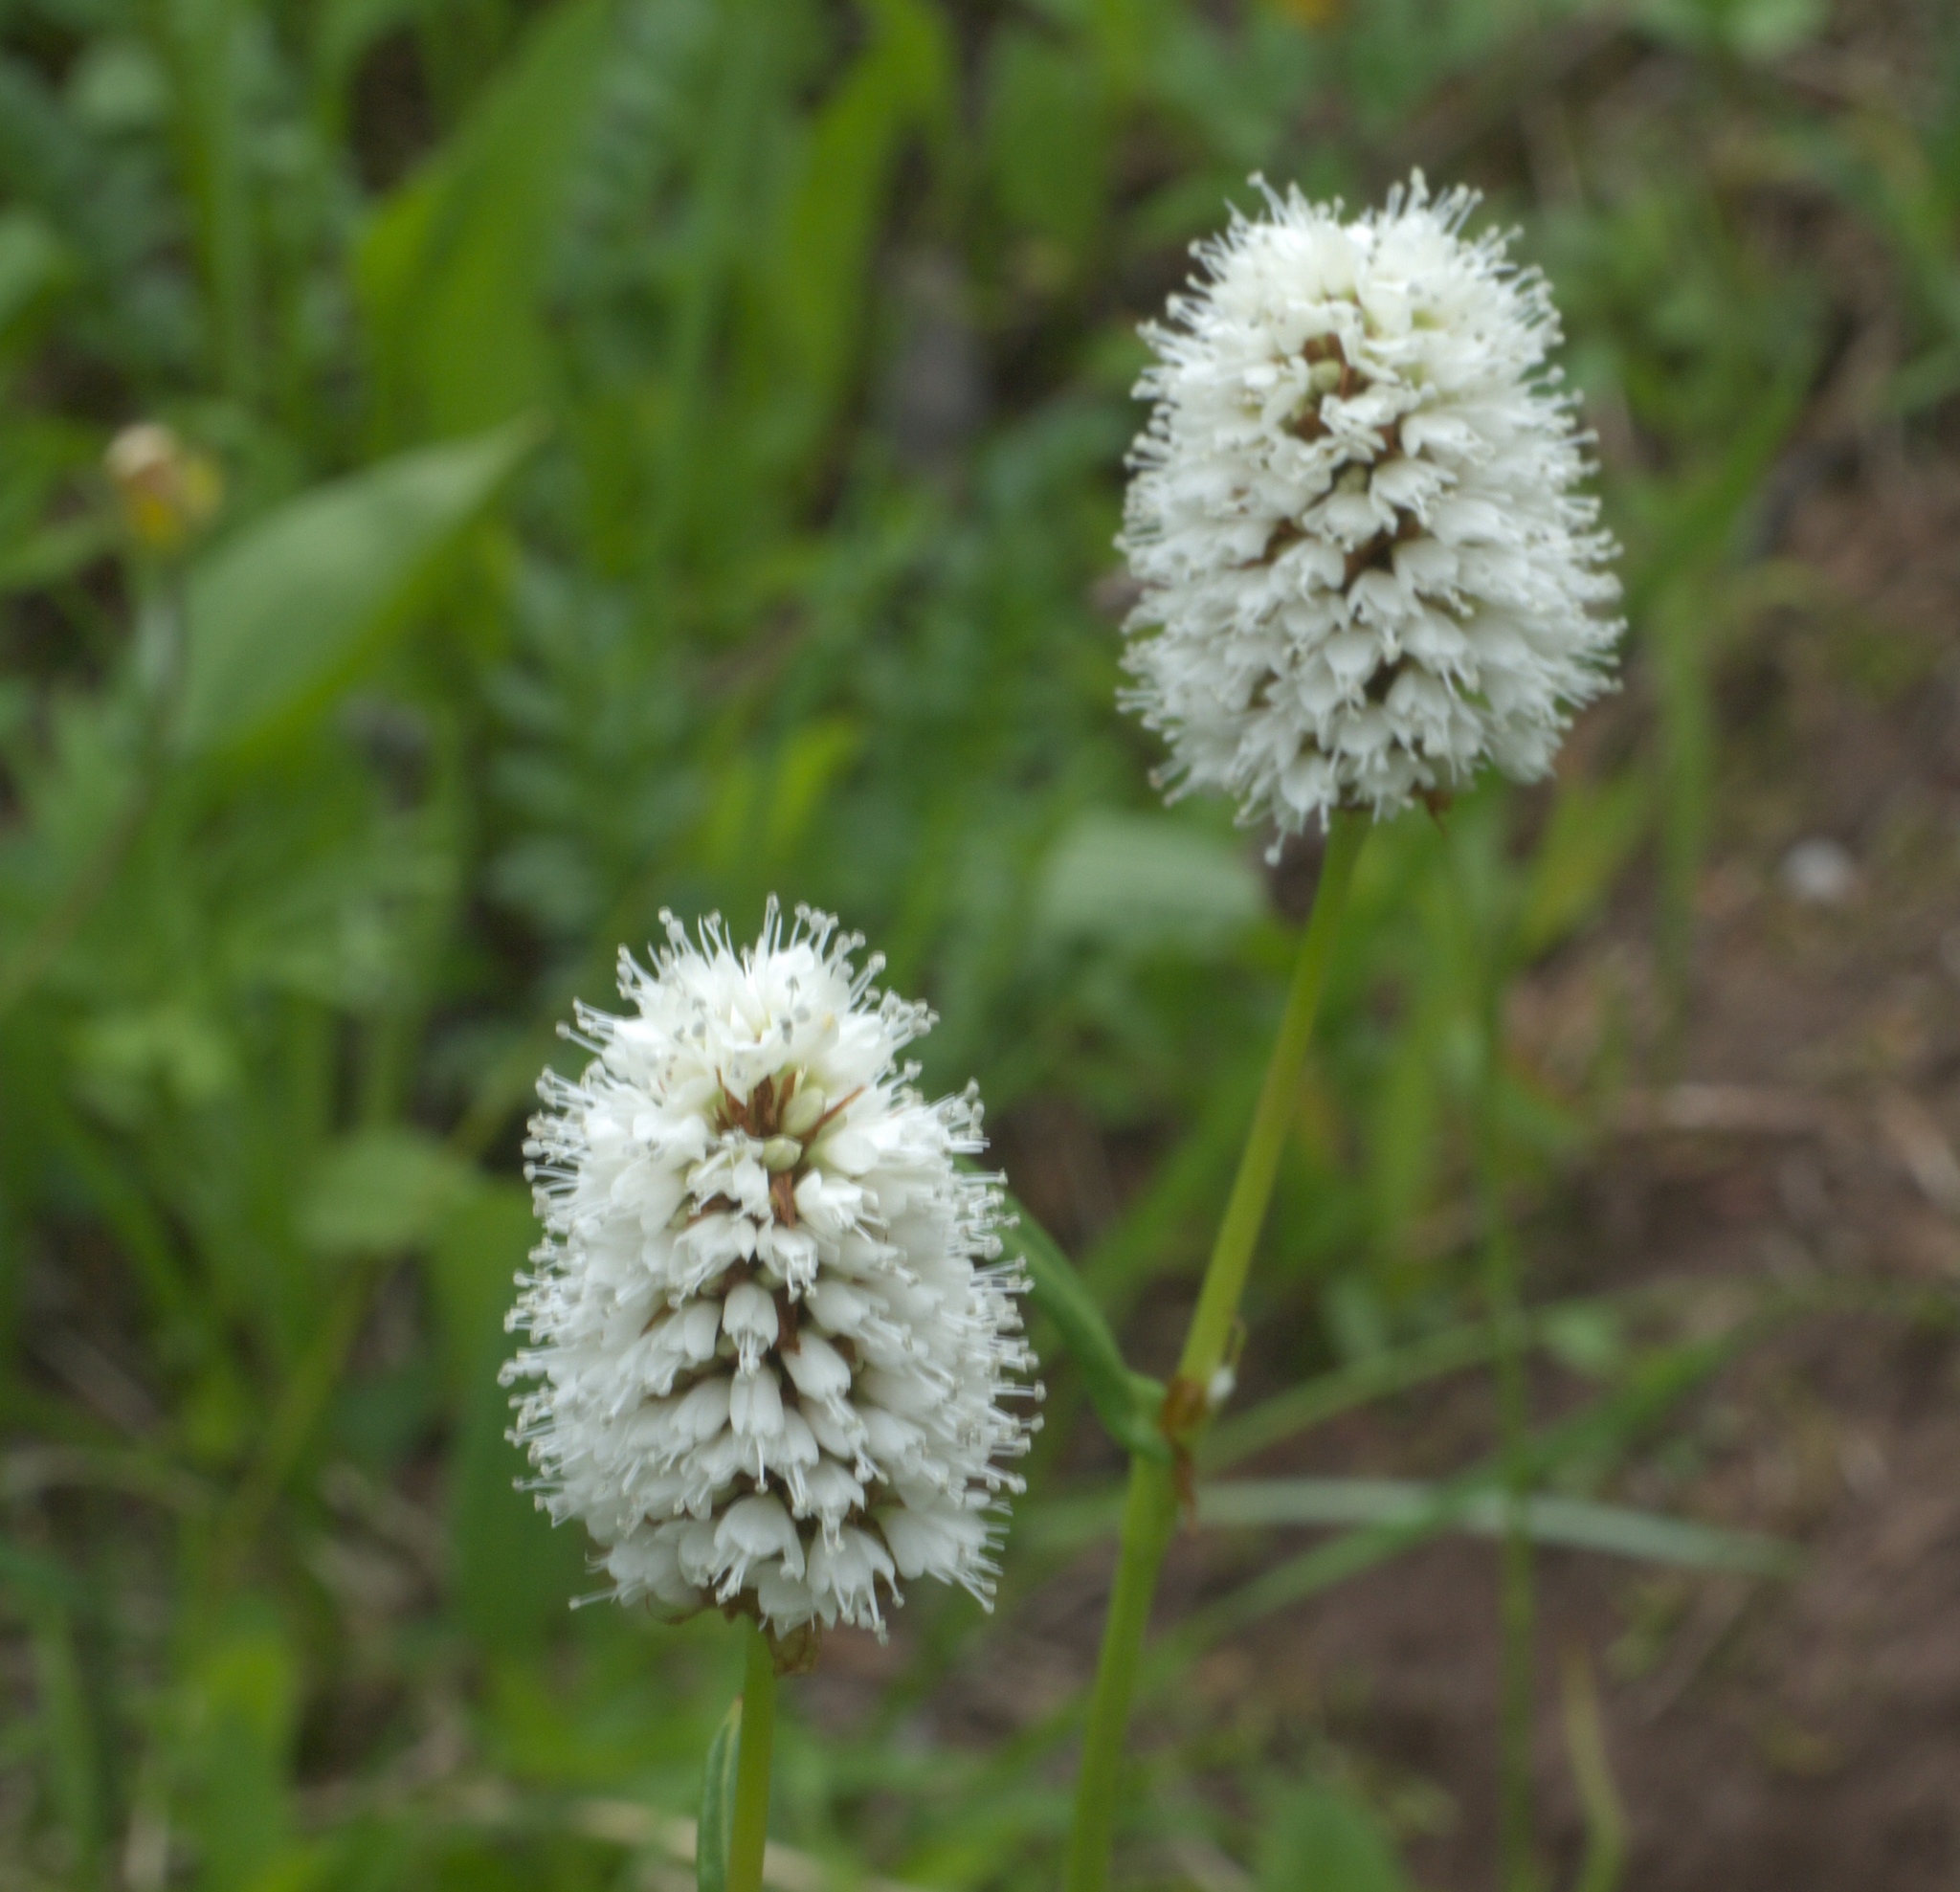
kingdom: Plantae
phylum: Tracheophyta
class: Magnoliopsida
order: Caryophyllales
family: Polygonaceae
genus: Bistorta
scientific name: Bistorta bistortoides
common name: American bistort
